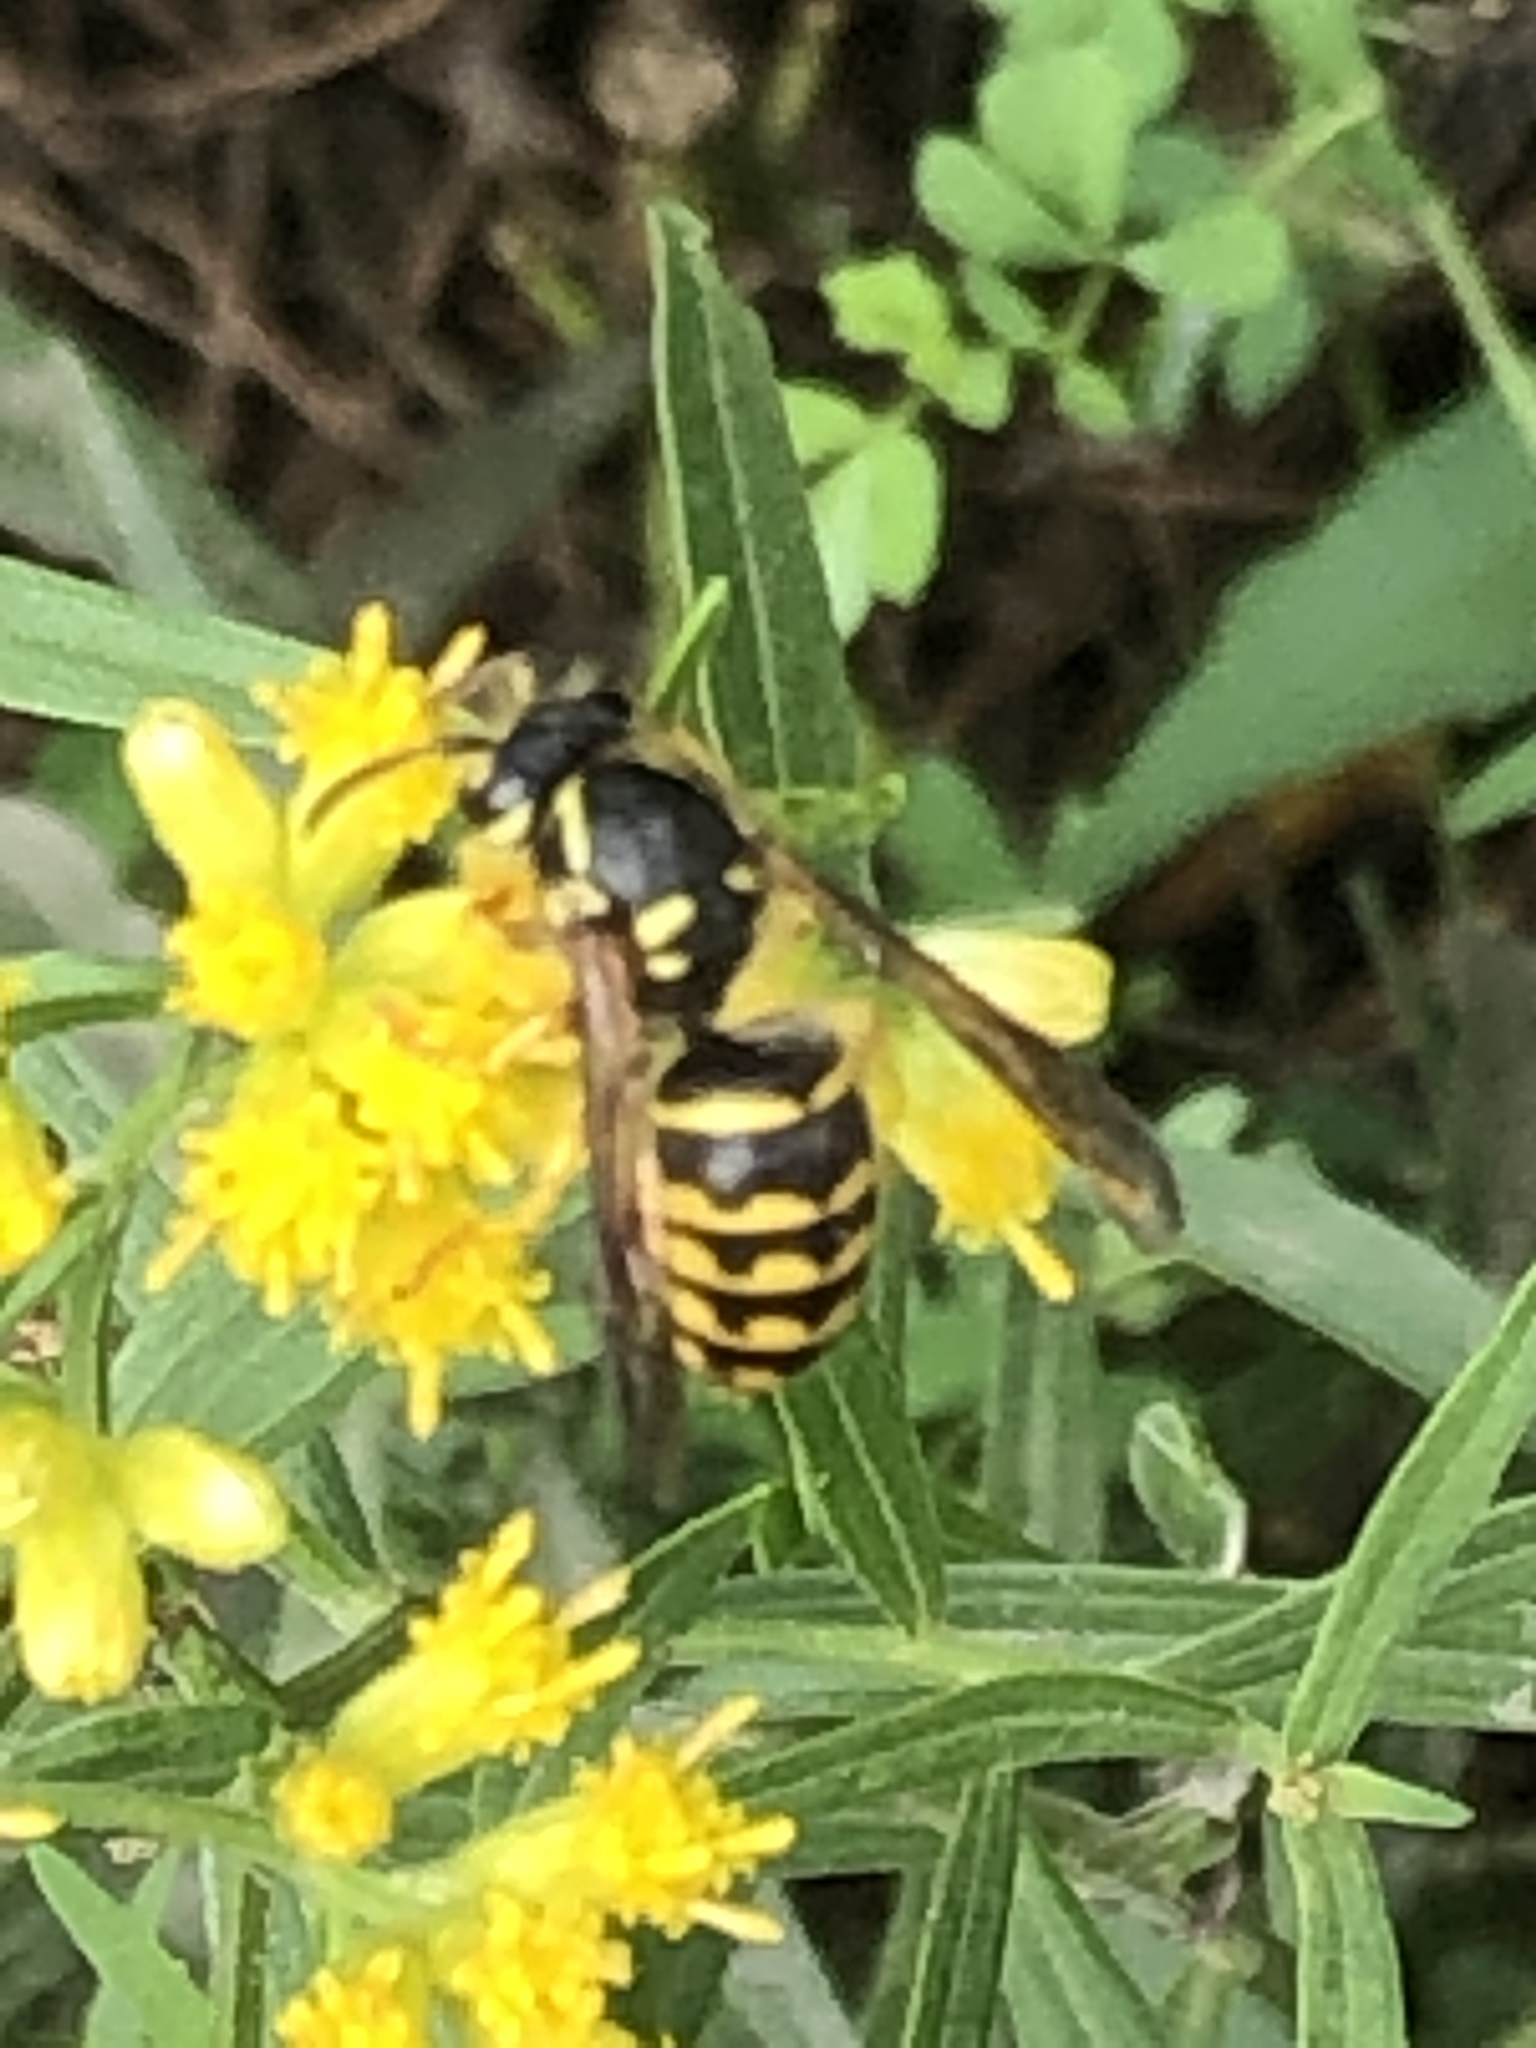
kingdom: Animalia
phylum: Arthropoda
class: Insecta
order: Hymenoptera
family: Vespidae
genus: Dolichovespula
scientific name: Dolichovespula arenaria
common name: Aerial yellowjacket
